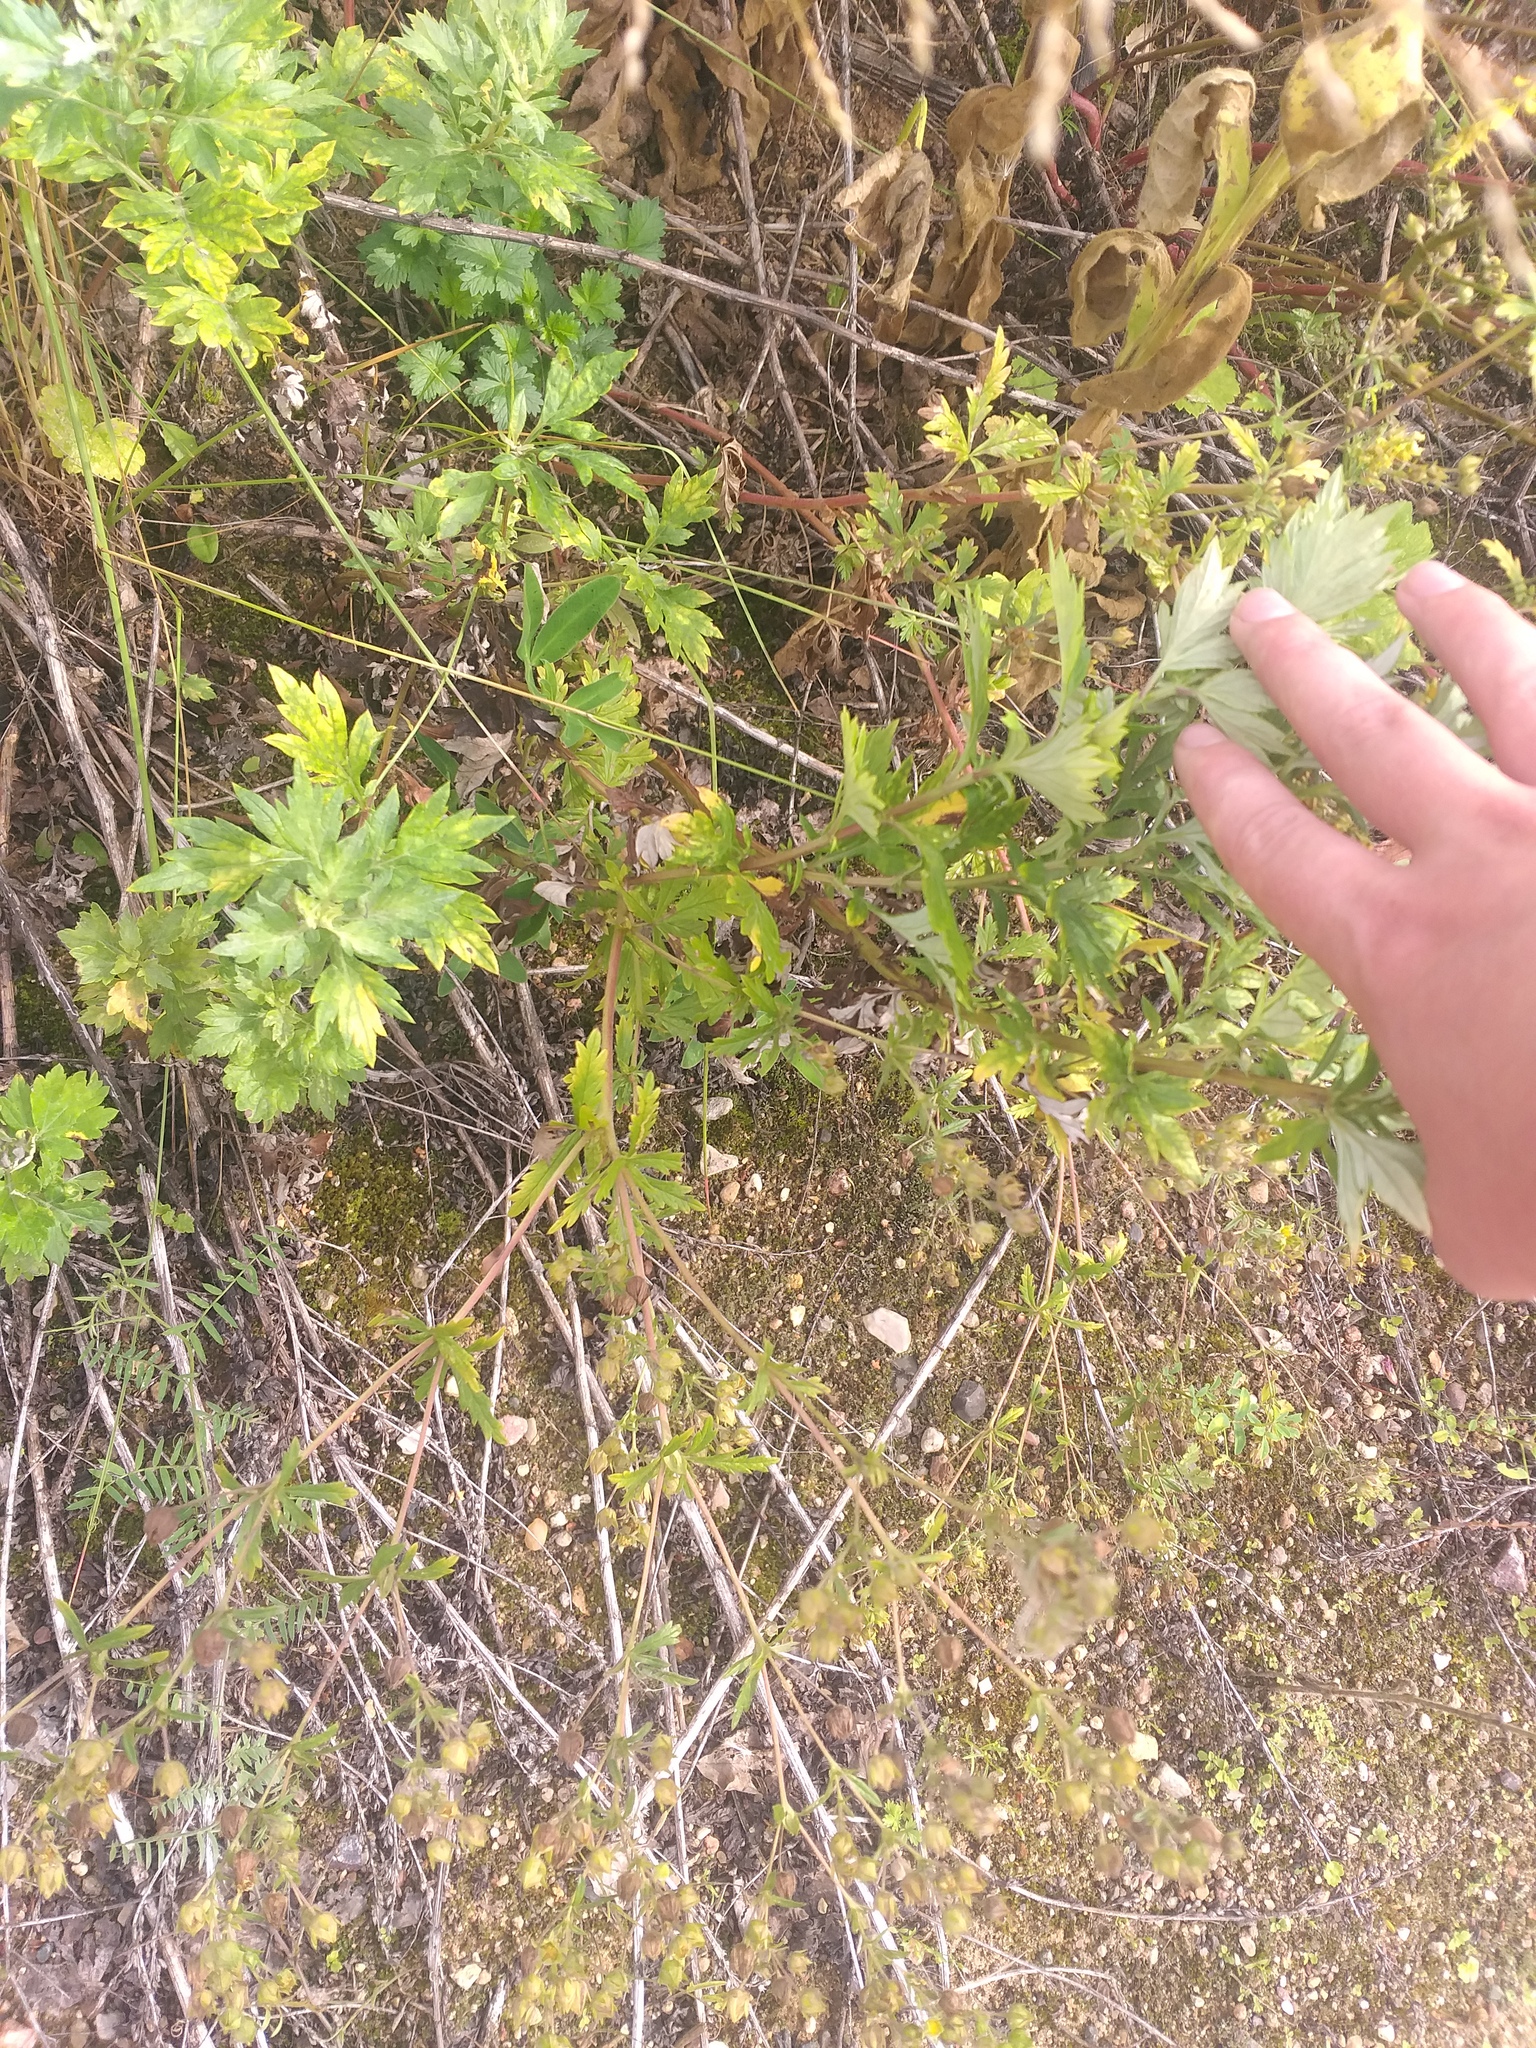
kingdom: Plantae
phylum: Tracheophyta
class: Magnoliopsida
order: Rosales
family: Rosaceae
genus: Potentilla
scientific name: Potentilla intermedia
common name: Downy cinquefoil
